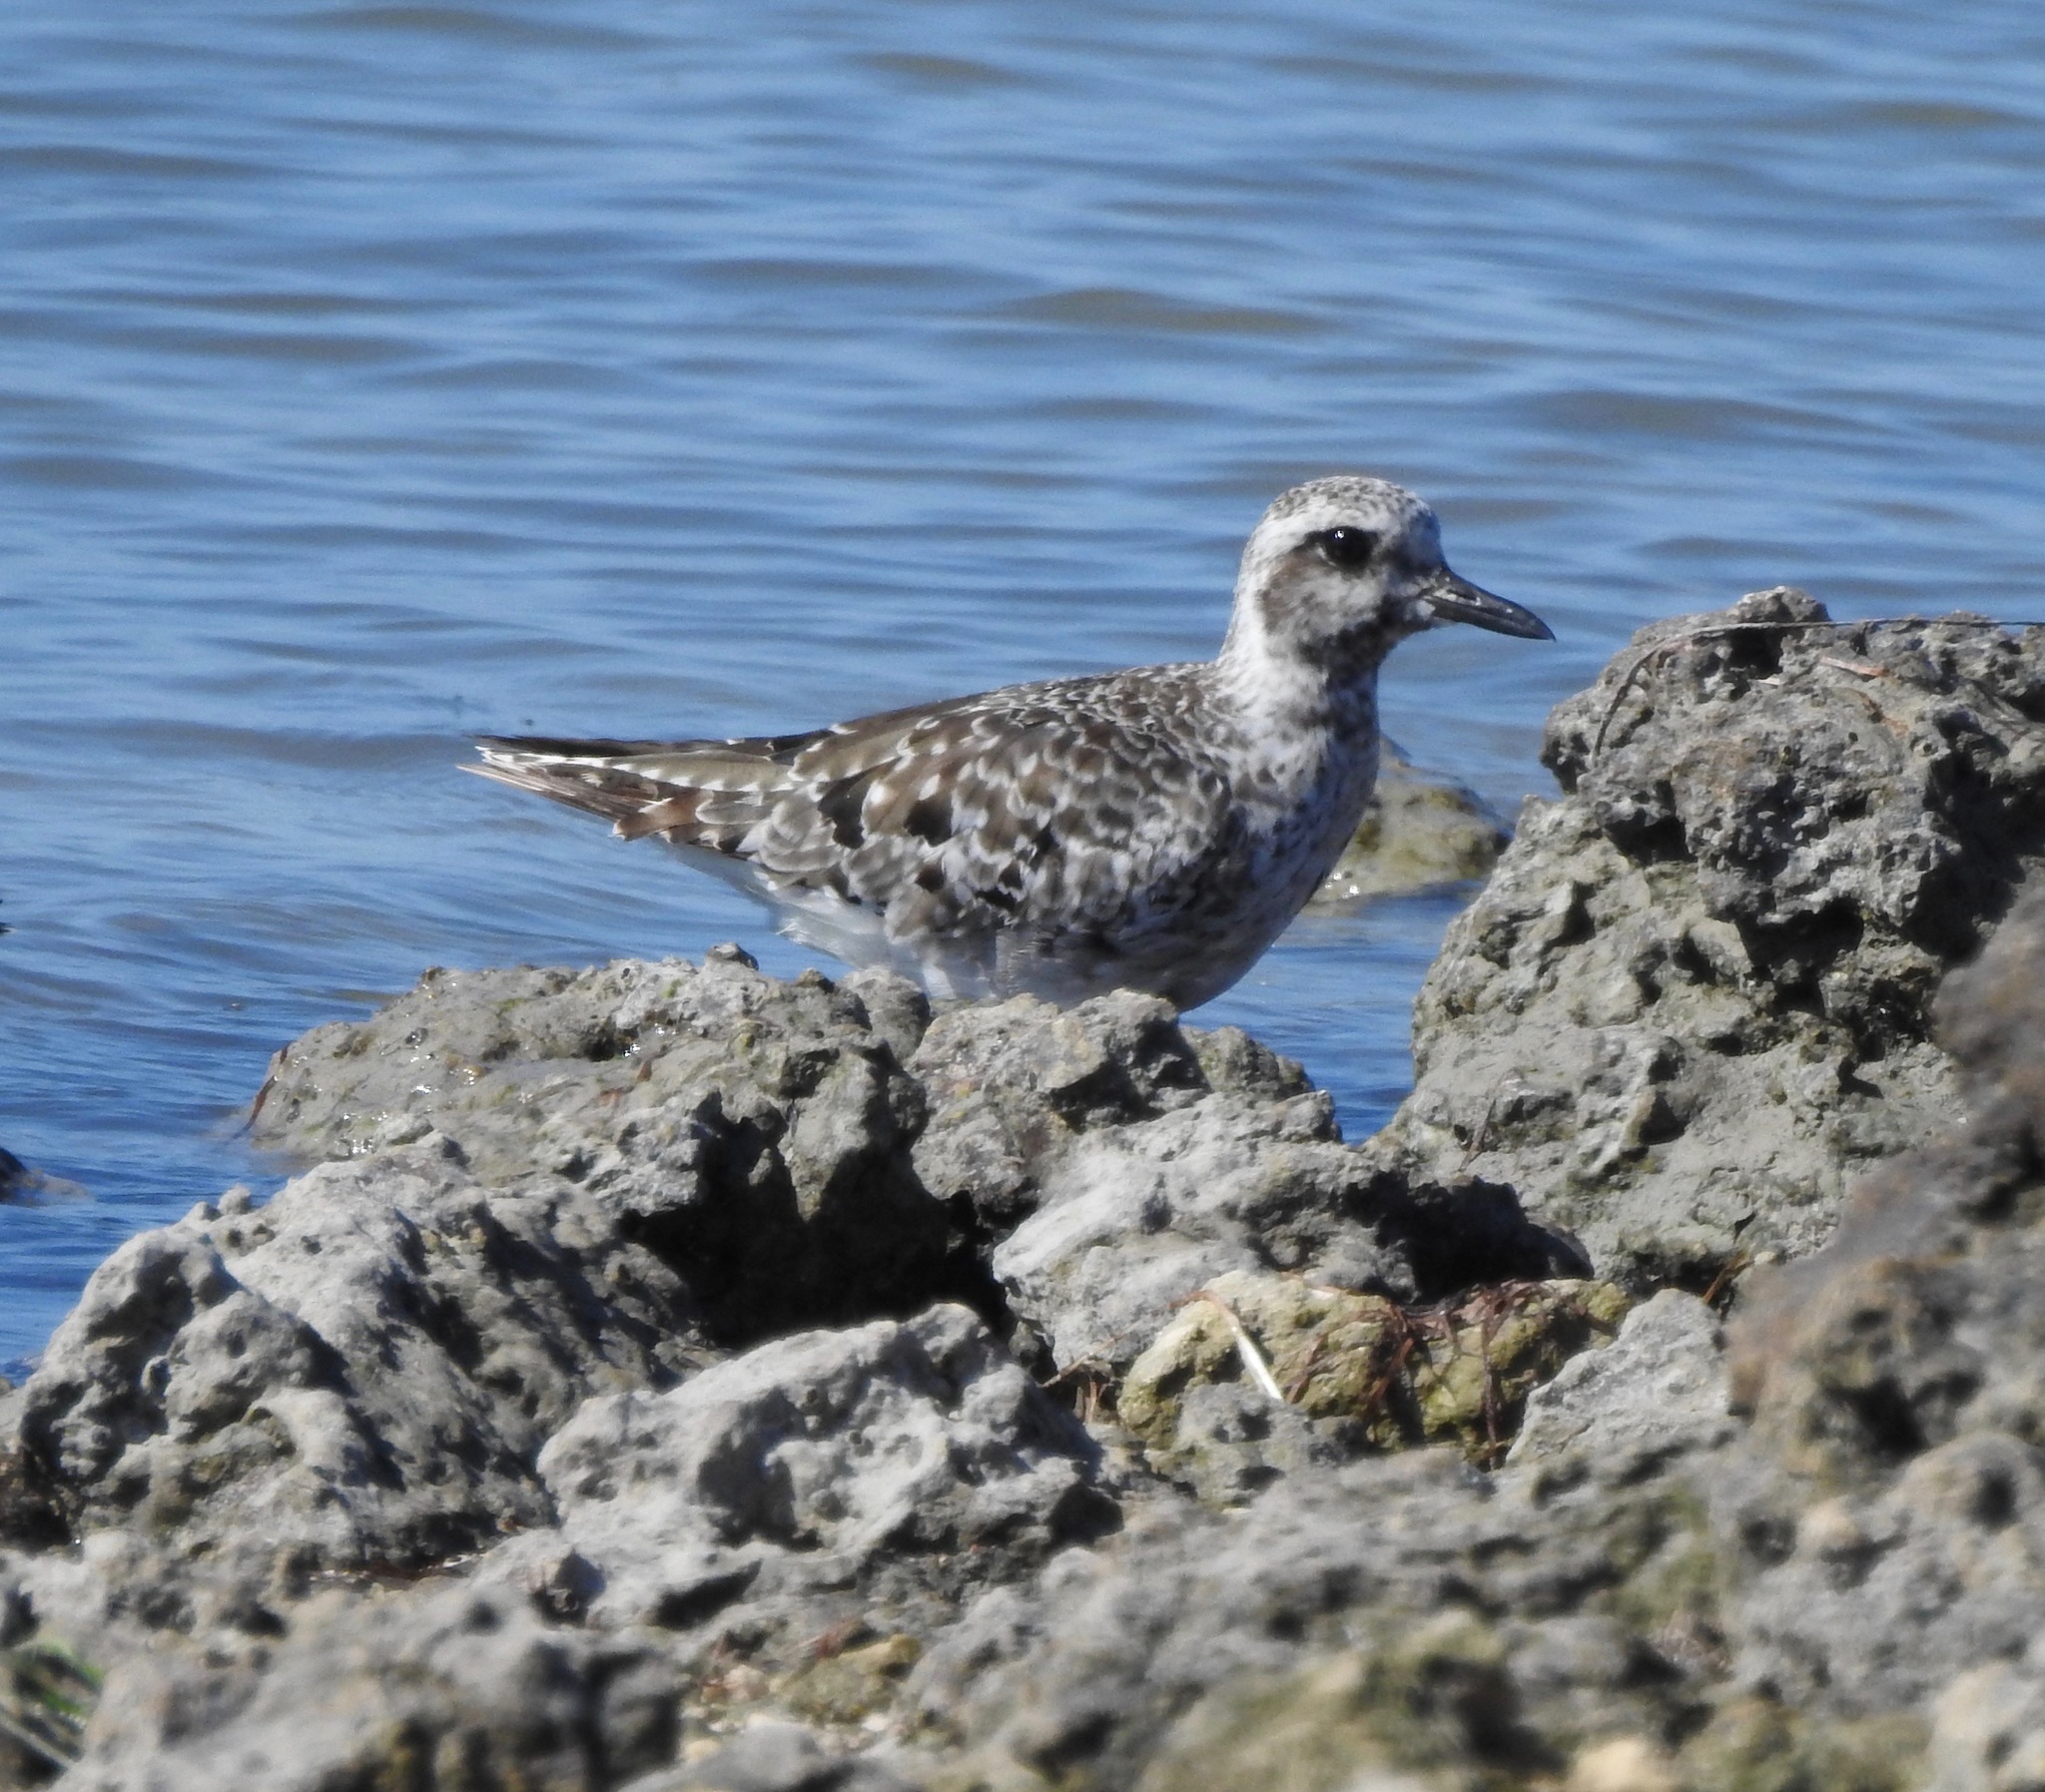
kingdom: Animalia
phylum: Chordata
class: Aves
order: Charadriiformes
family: Charadriidae
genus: Pluvialis
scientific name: Pluvialis squatarola
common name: Grey plover
